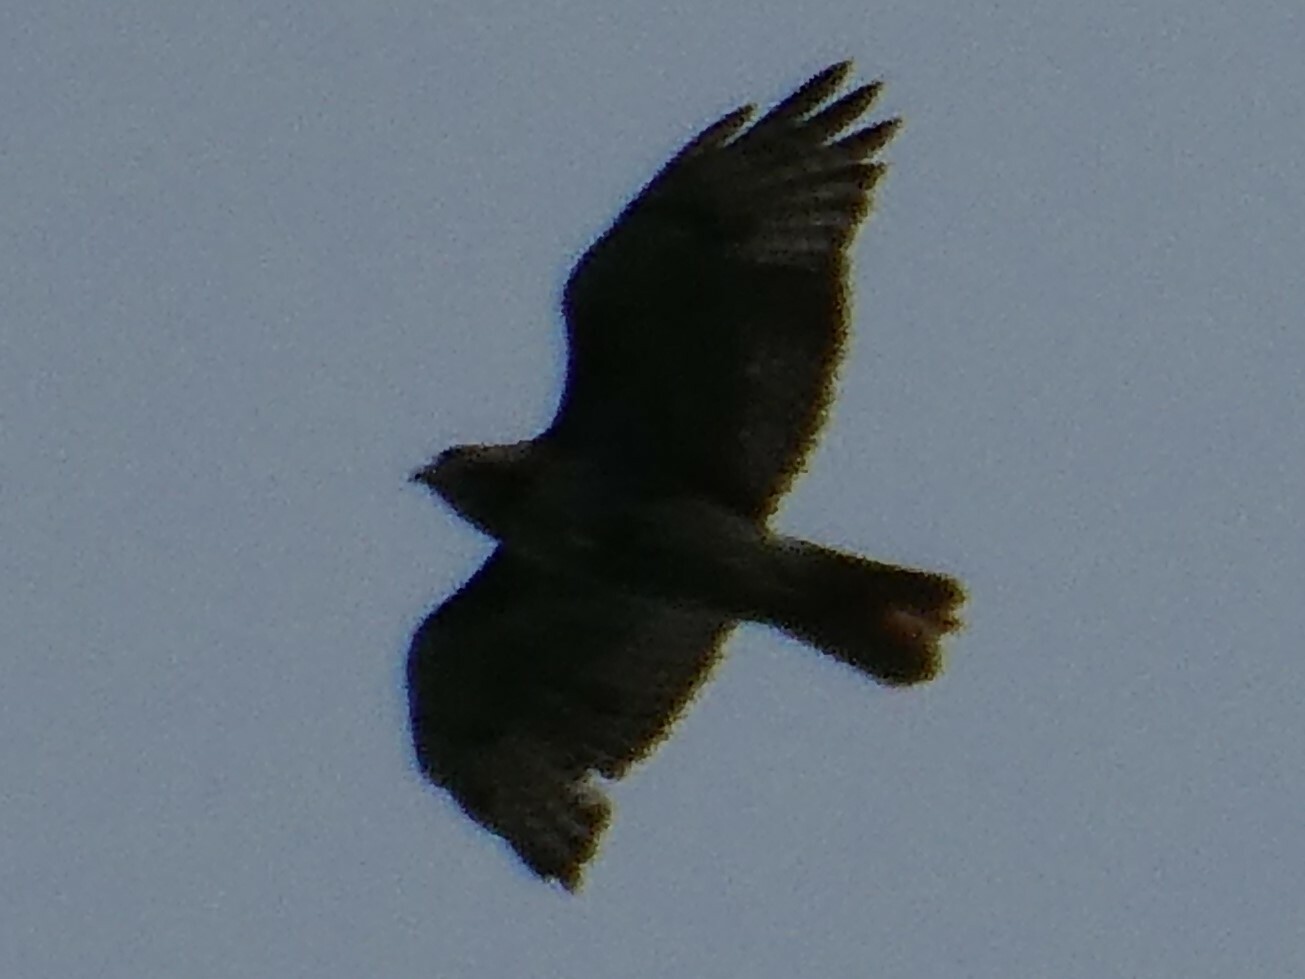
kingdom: Animalia
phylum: Chordata
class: Aves
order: Accipitriformes
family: Accipitridae
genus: Buteo
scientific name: Buteo jamaicensis
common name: Red-tailed hawk
